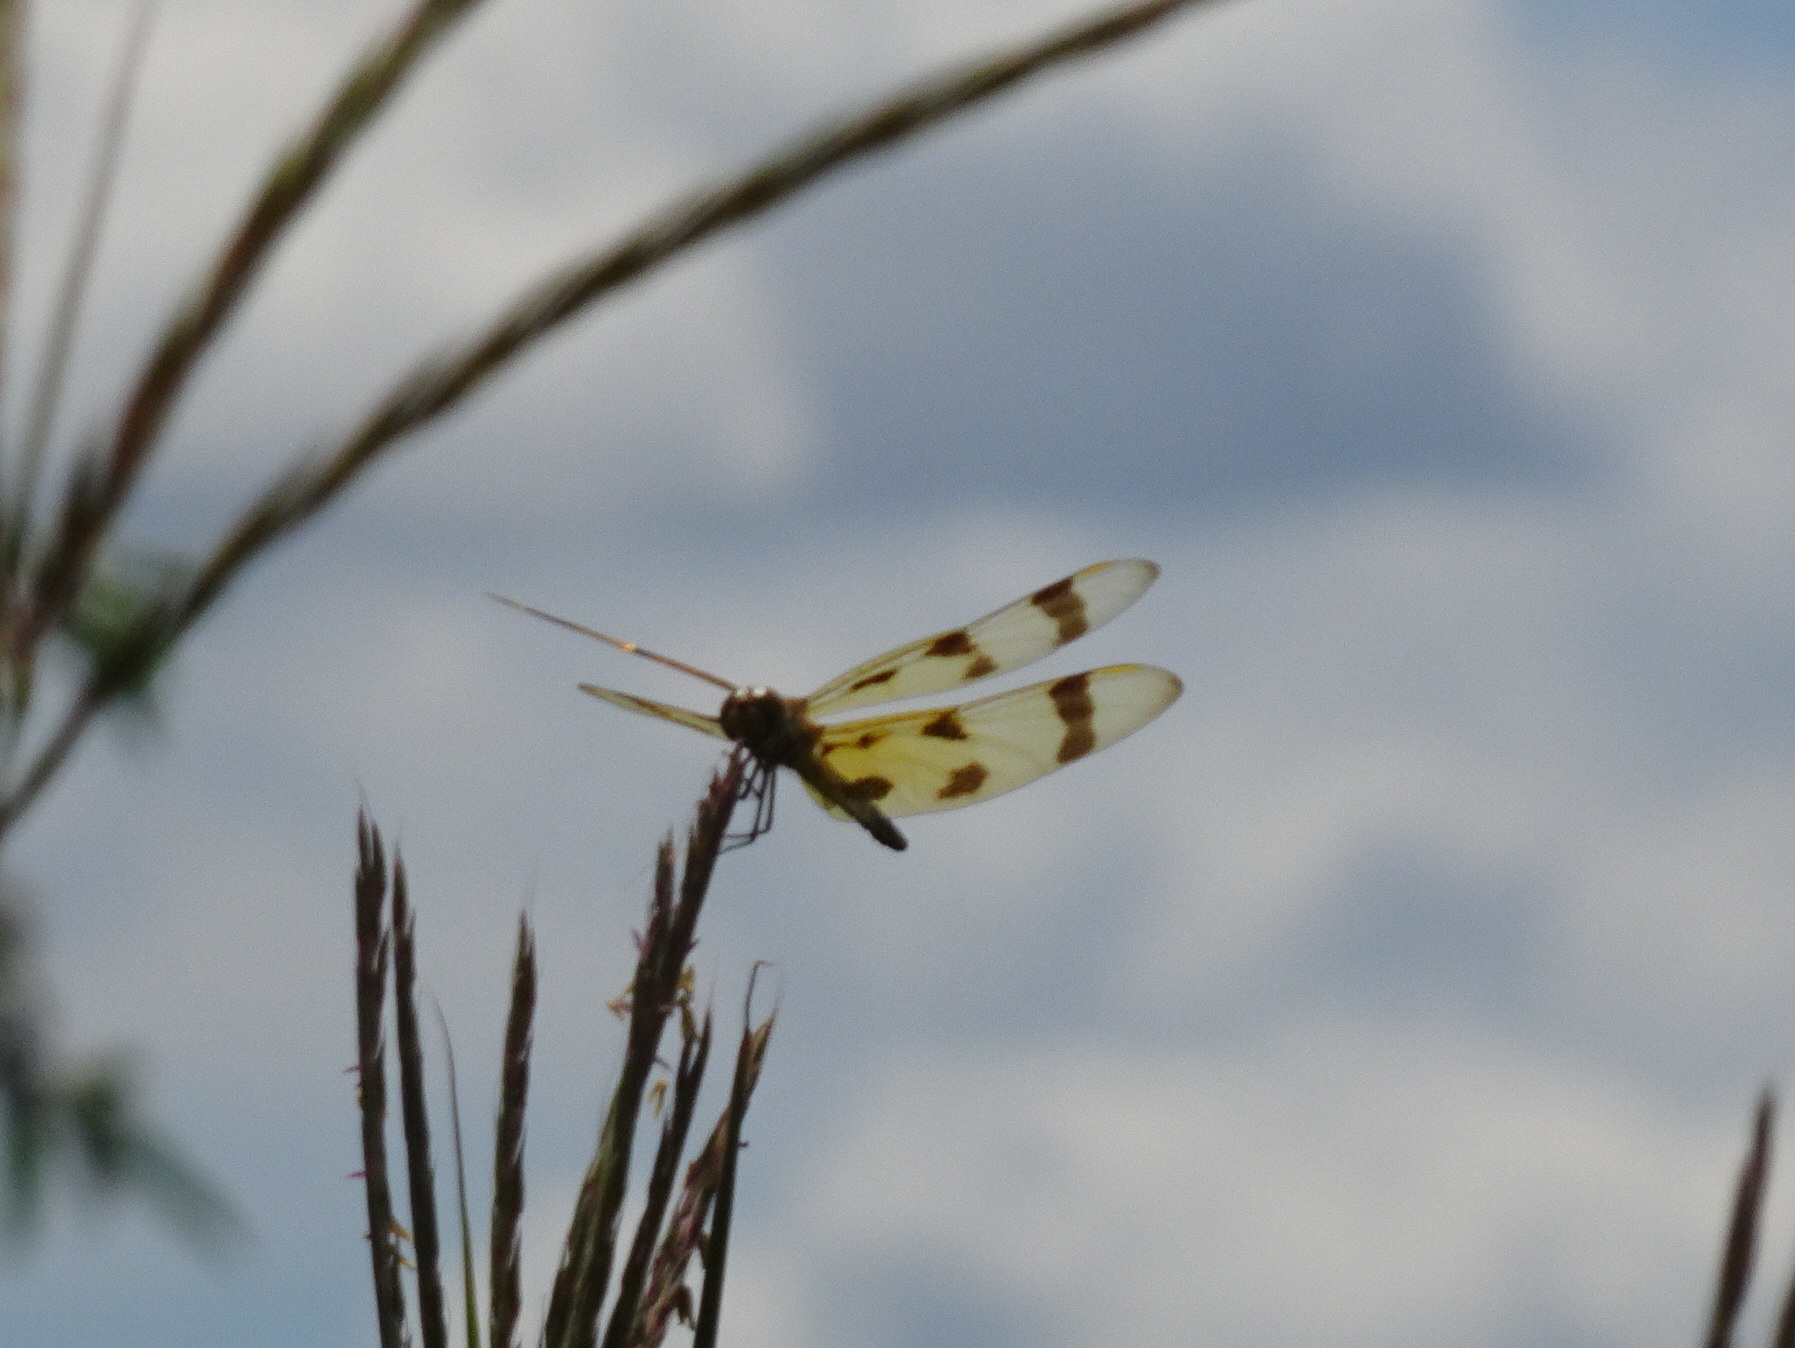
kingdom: Animalia
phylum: Arthropoda
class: Insecta
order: Odonata
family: Libellulidae
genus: Celithemis
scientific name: Celithemis eponina
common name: Halloween pennant
